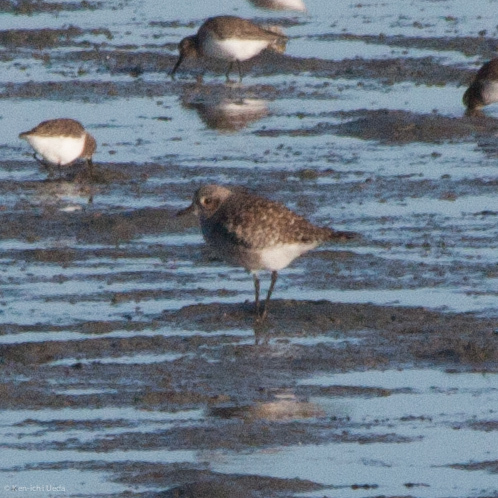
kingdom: Animalia
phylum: Chordata
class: Aves
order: Charadriiformes
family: Charadriidae
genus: Pluvialis
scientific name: Pluvialis squatarola
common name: Grey plover
